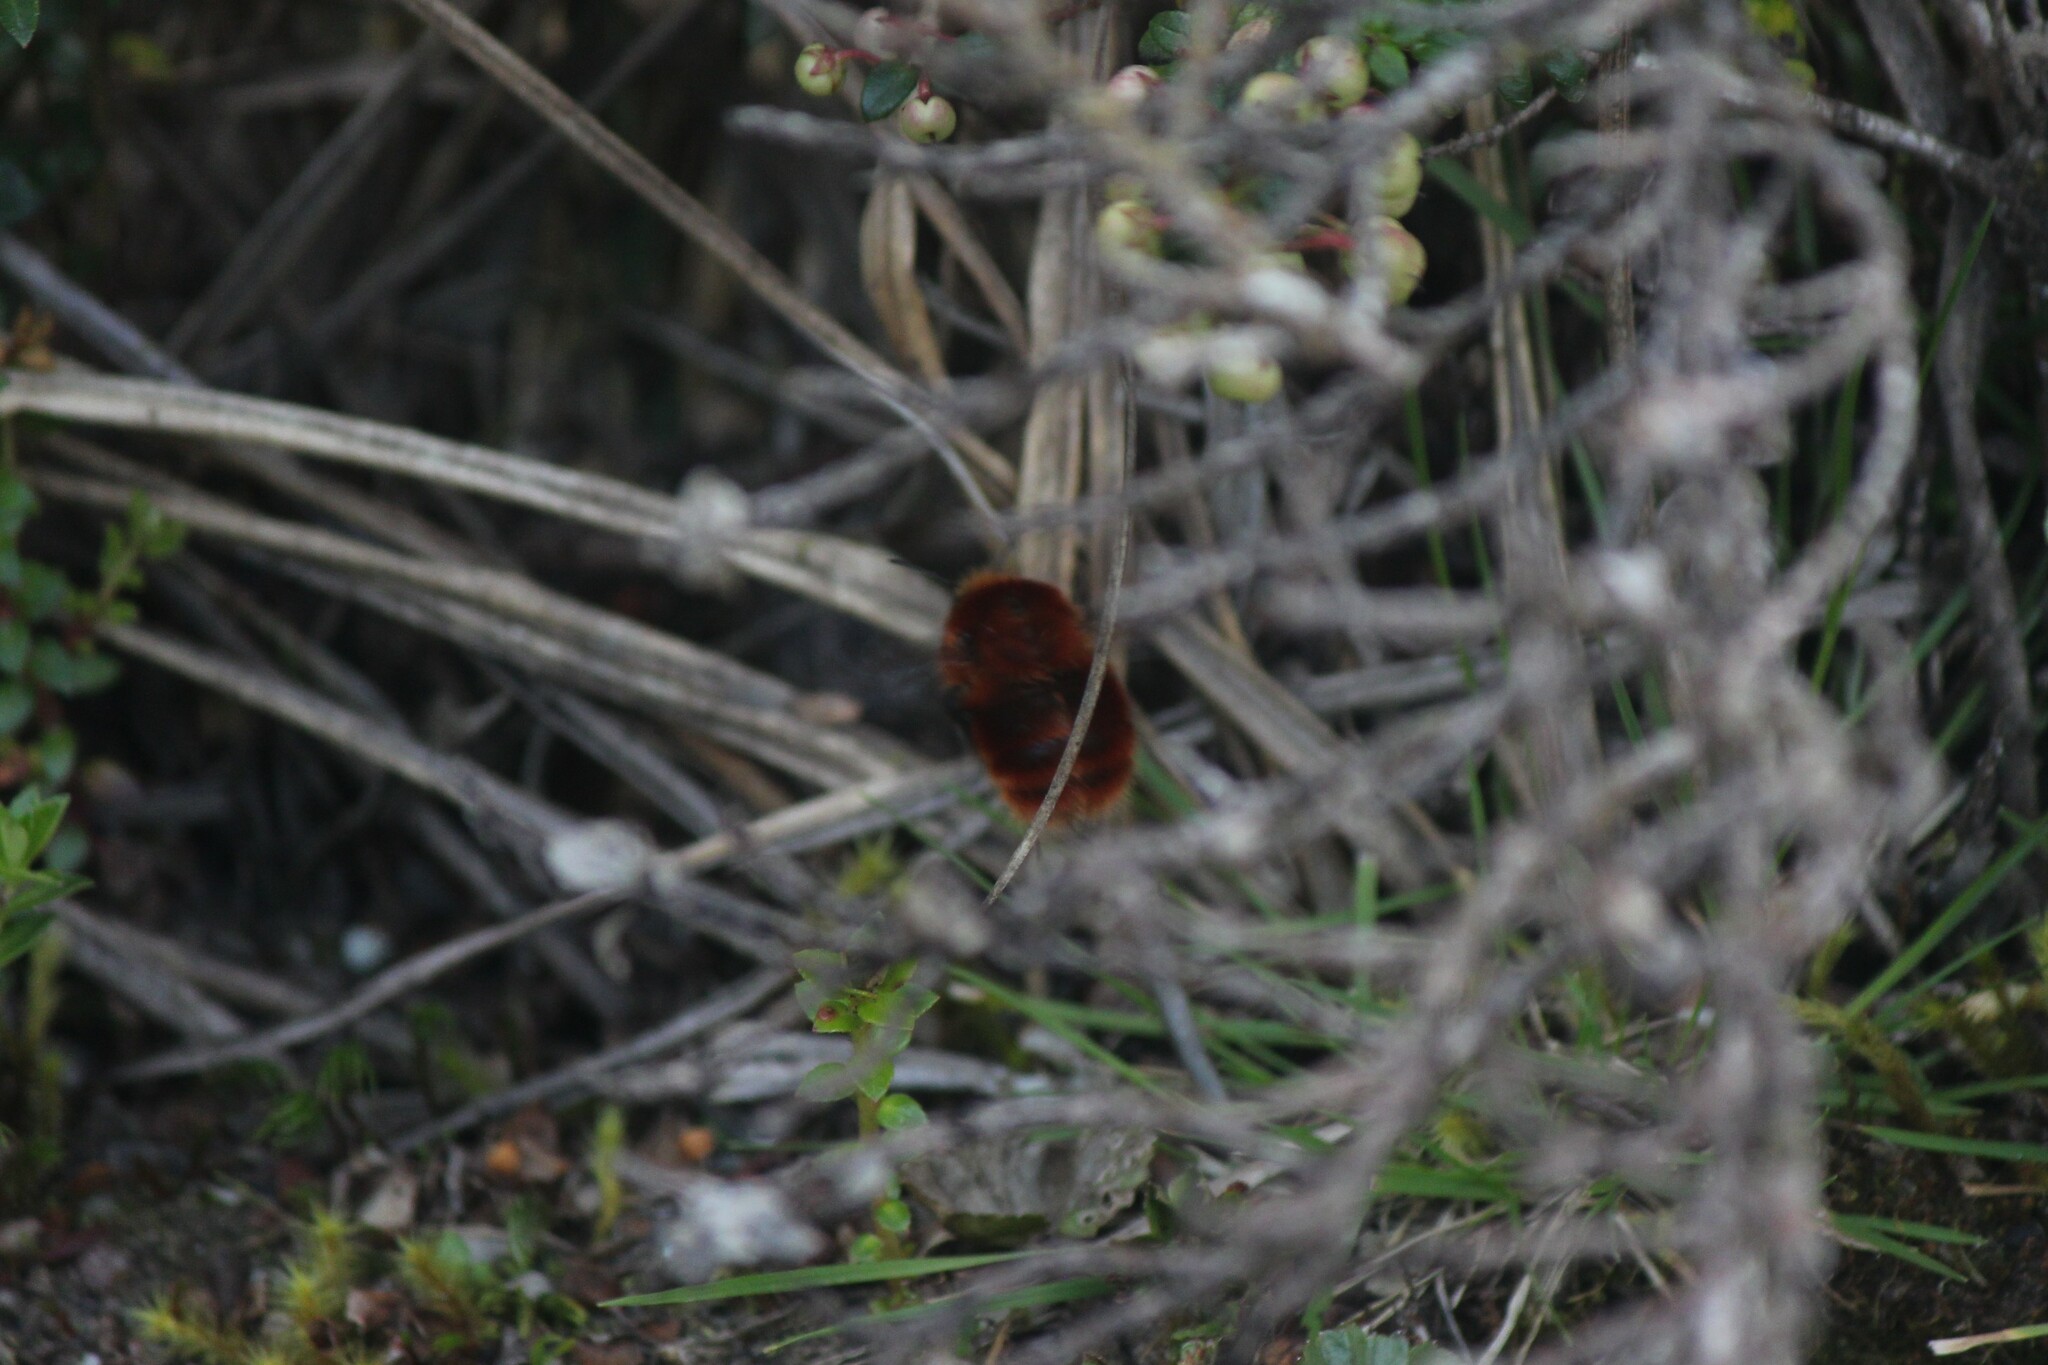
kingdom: Animalia
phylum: Arthropoda
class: Insecta
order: Hymenoptera
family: Apidae
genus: Bombus
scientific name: Bombus rubicundus
